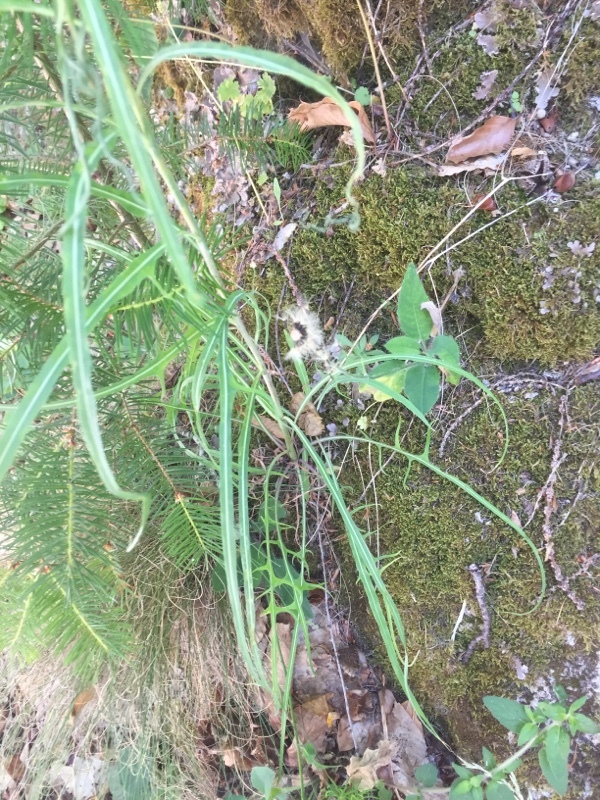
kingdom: Plantae
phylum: Tracheophyta
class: Magnoliopsida
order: Asterales
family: Asteraceae
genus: Lactuca
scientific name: Lactuca viminea
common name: Pliant lettuce
